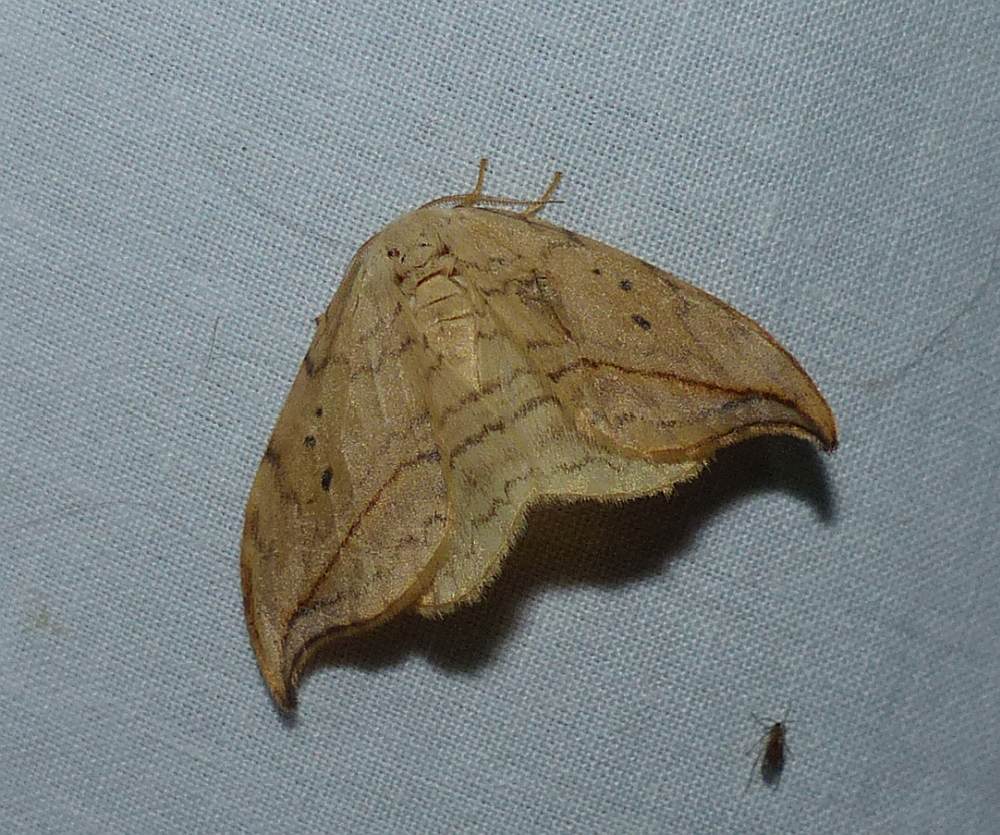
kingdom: Animalia
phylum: Arthropoda
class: Insecta
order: Lepidoptera
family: Drepanidae
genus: Drepana
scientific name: Drepana arcuata
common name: Arched hooktip moth
